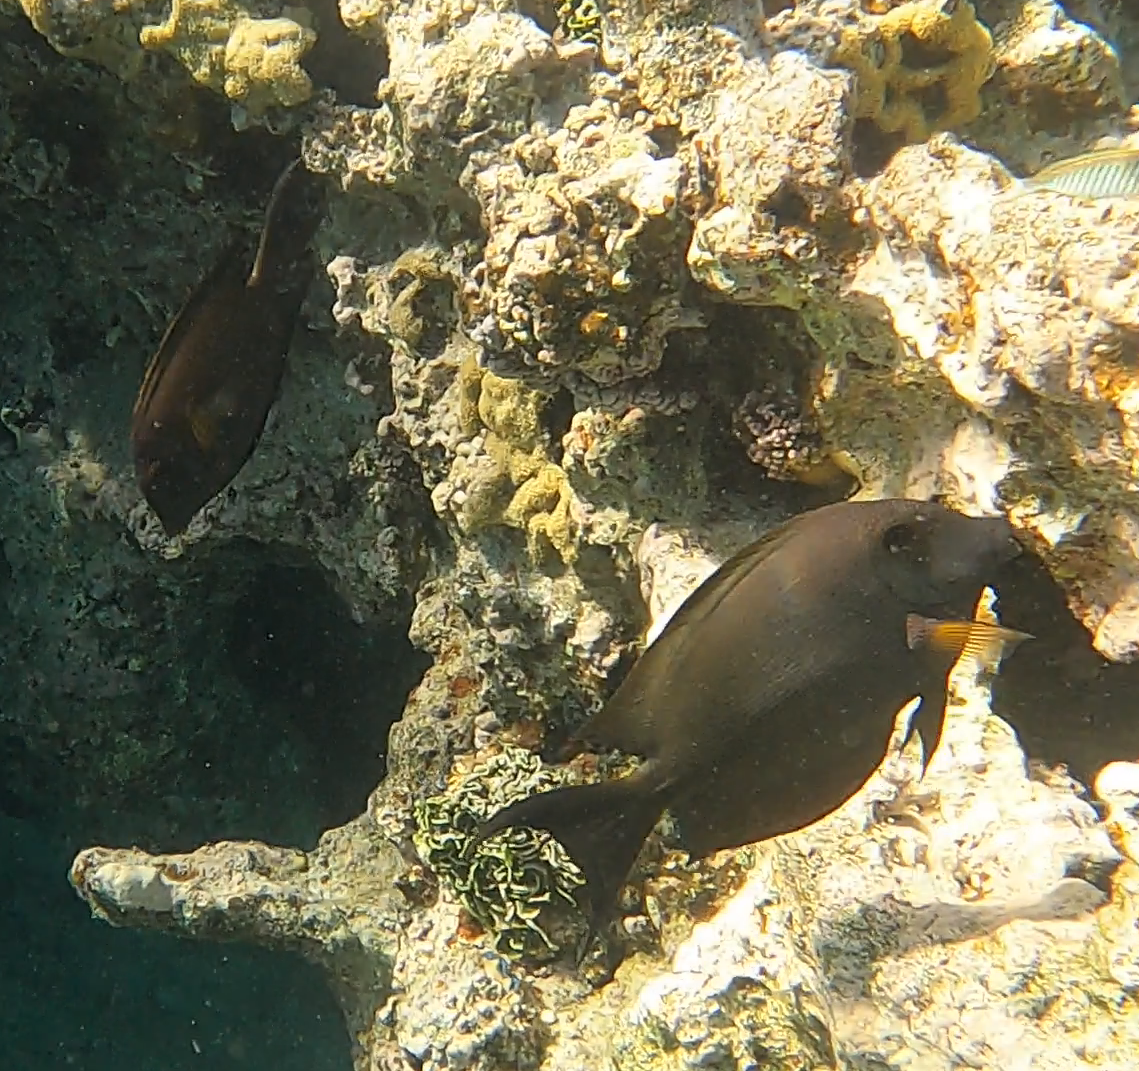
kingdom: Animalia
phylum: Chordata
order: Perciformes
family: Acanthuridae
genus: Ctenochaetus
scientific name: Ctenochaetus striatus
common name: Bristle-toothed surgeonfish
